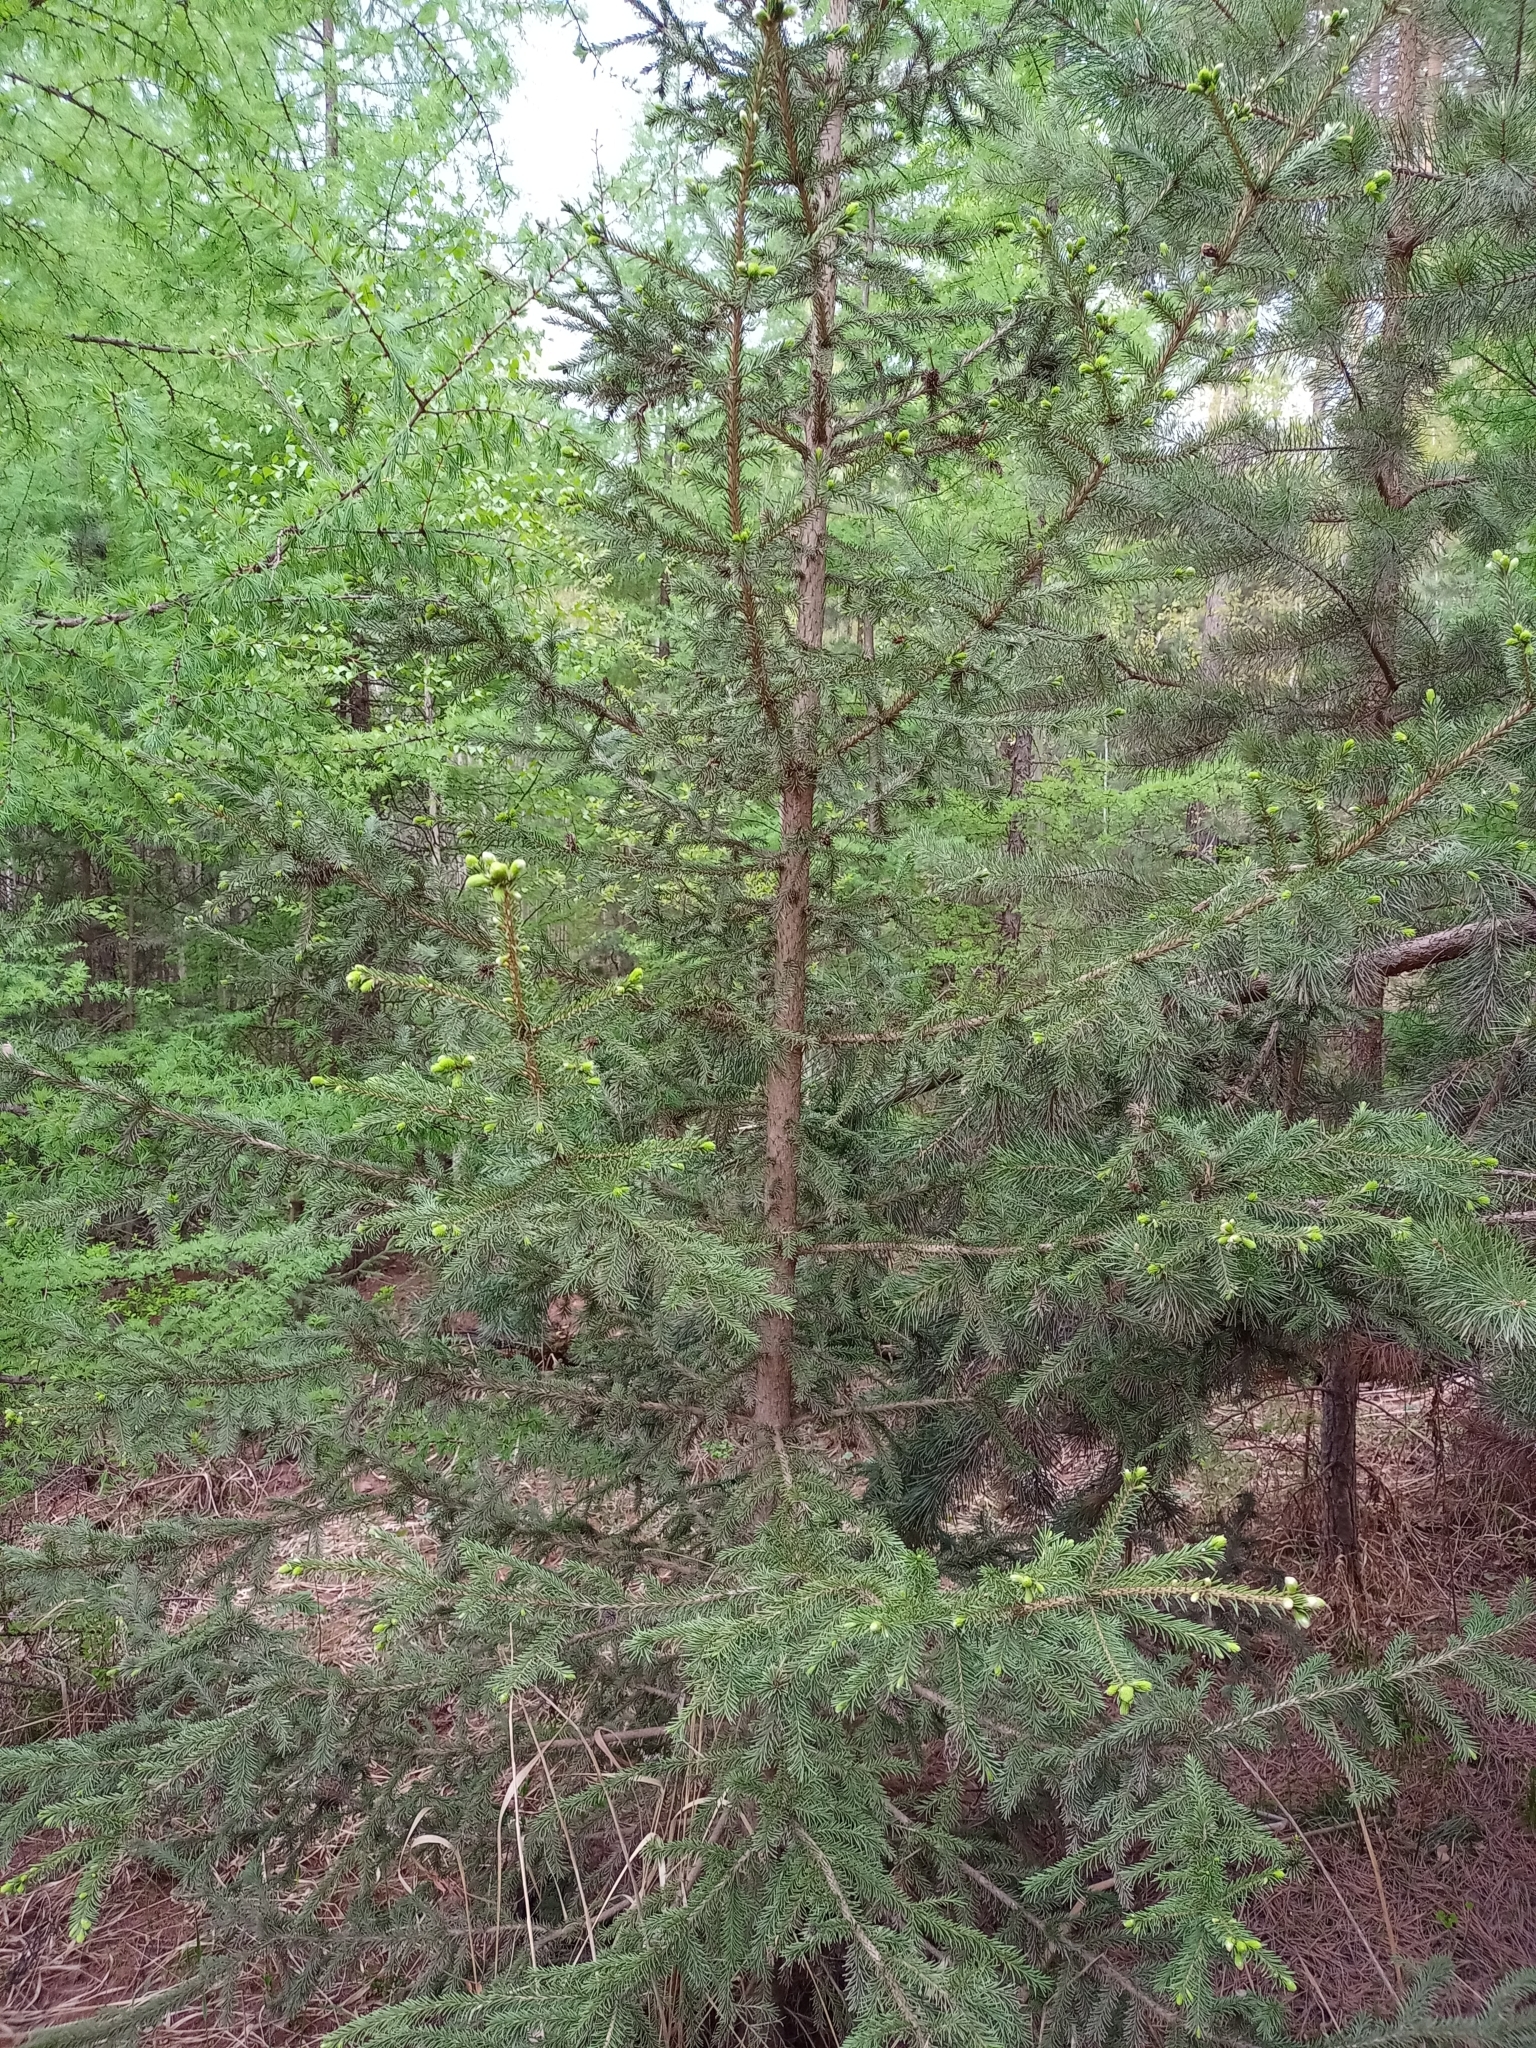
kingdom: Plantae
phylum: Tracheophyta
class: Pinopsida
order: Pinales
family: Pinaceae
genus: Picea
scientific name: Picea obovata
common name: Siberian spruce
